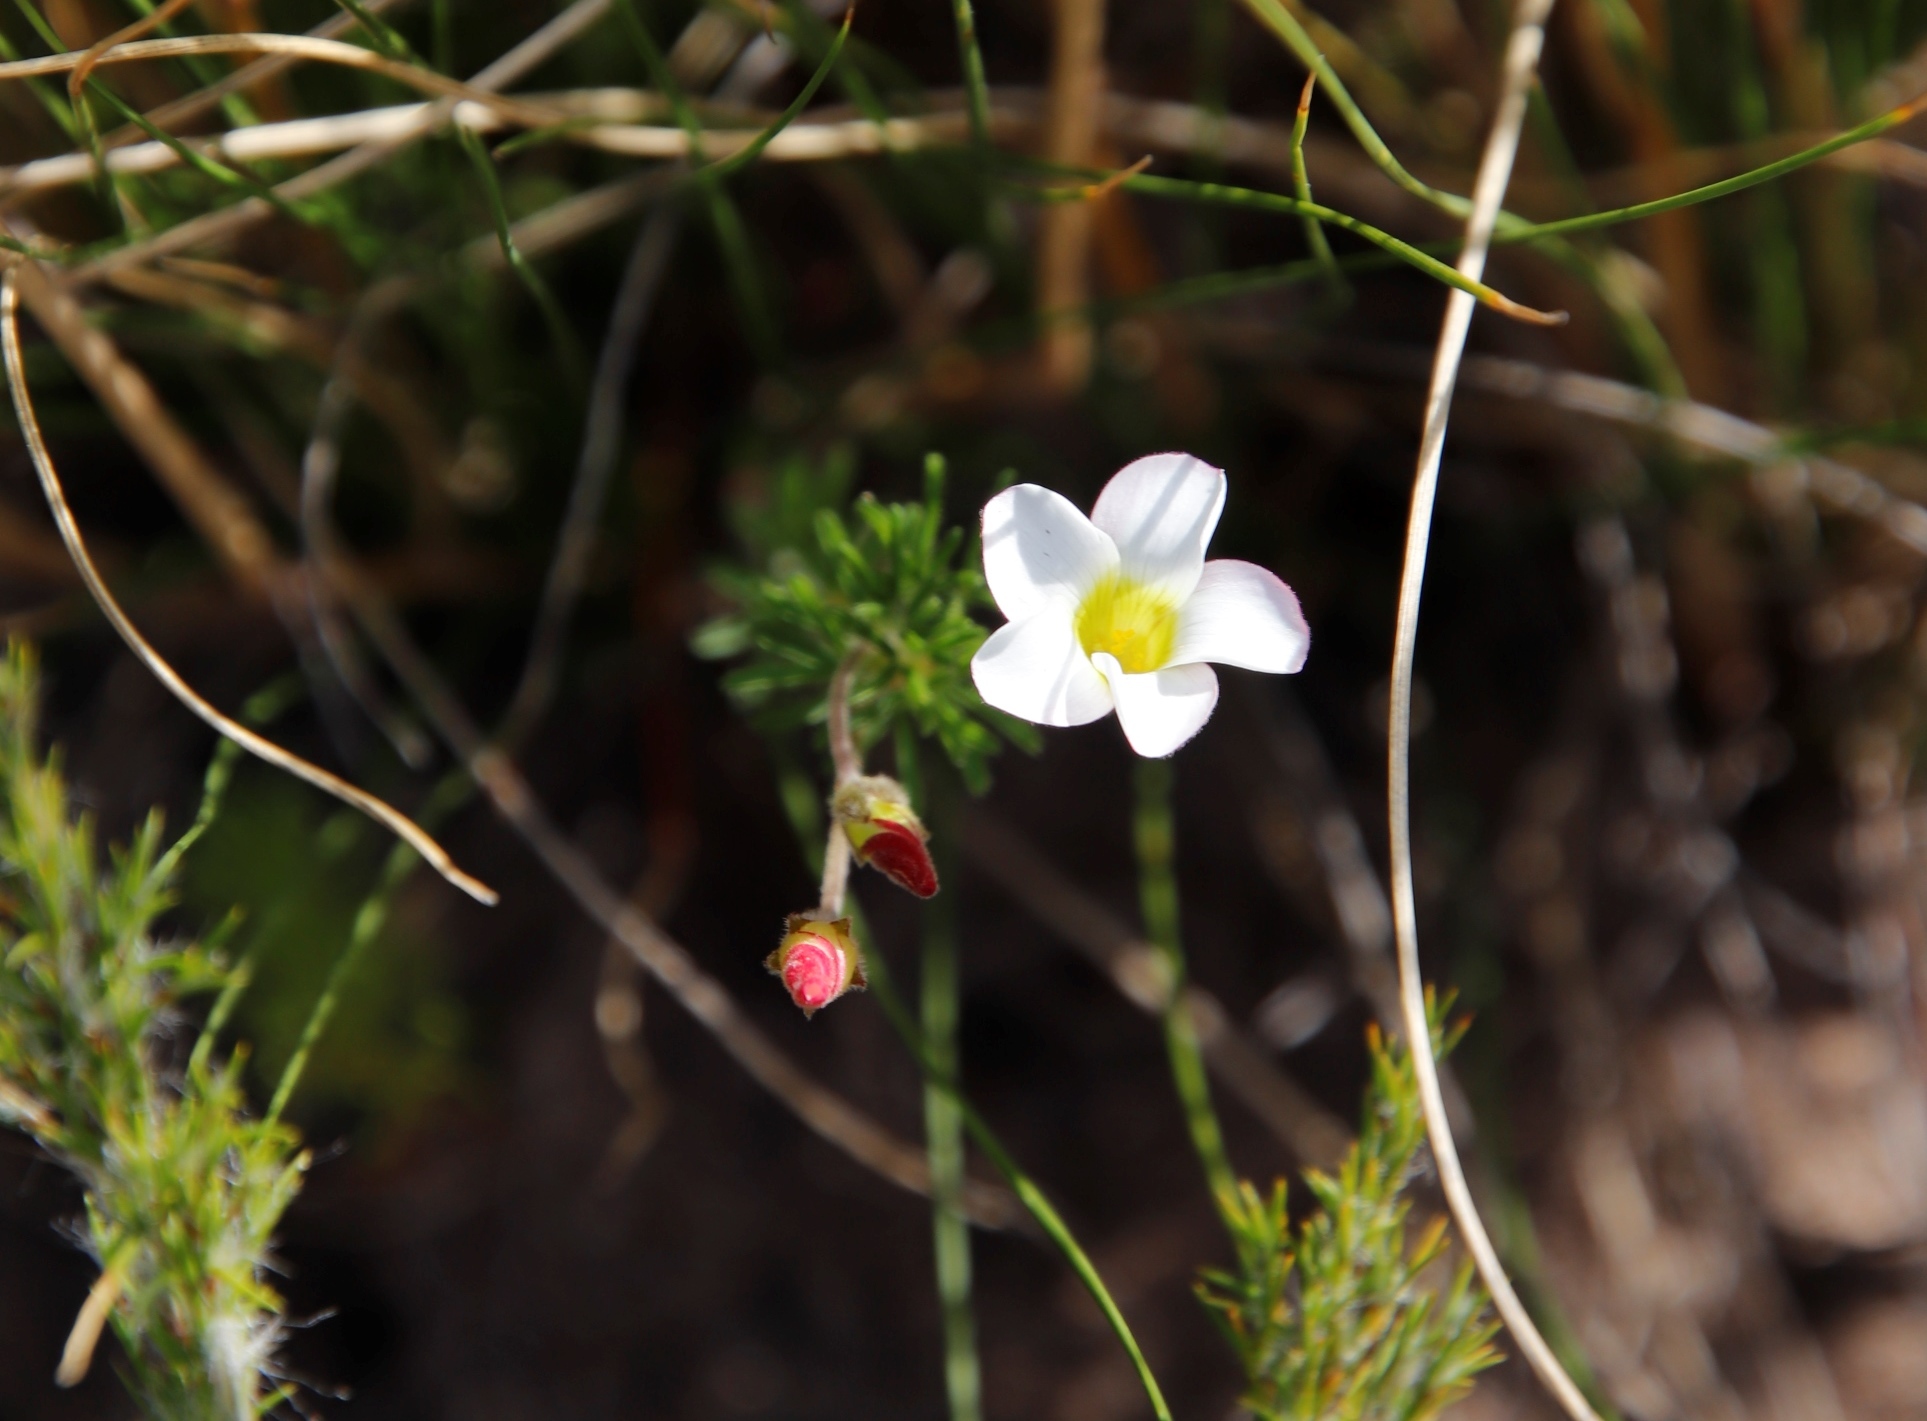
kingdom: Plantae
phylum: Tracheophyta
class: Magnoliopsida
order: Oxalidales
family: Oxalidaceae
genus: Oxalis
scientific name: Oxalis tenuifolia
